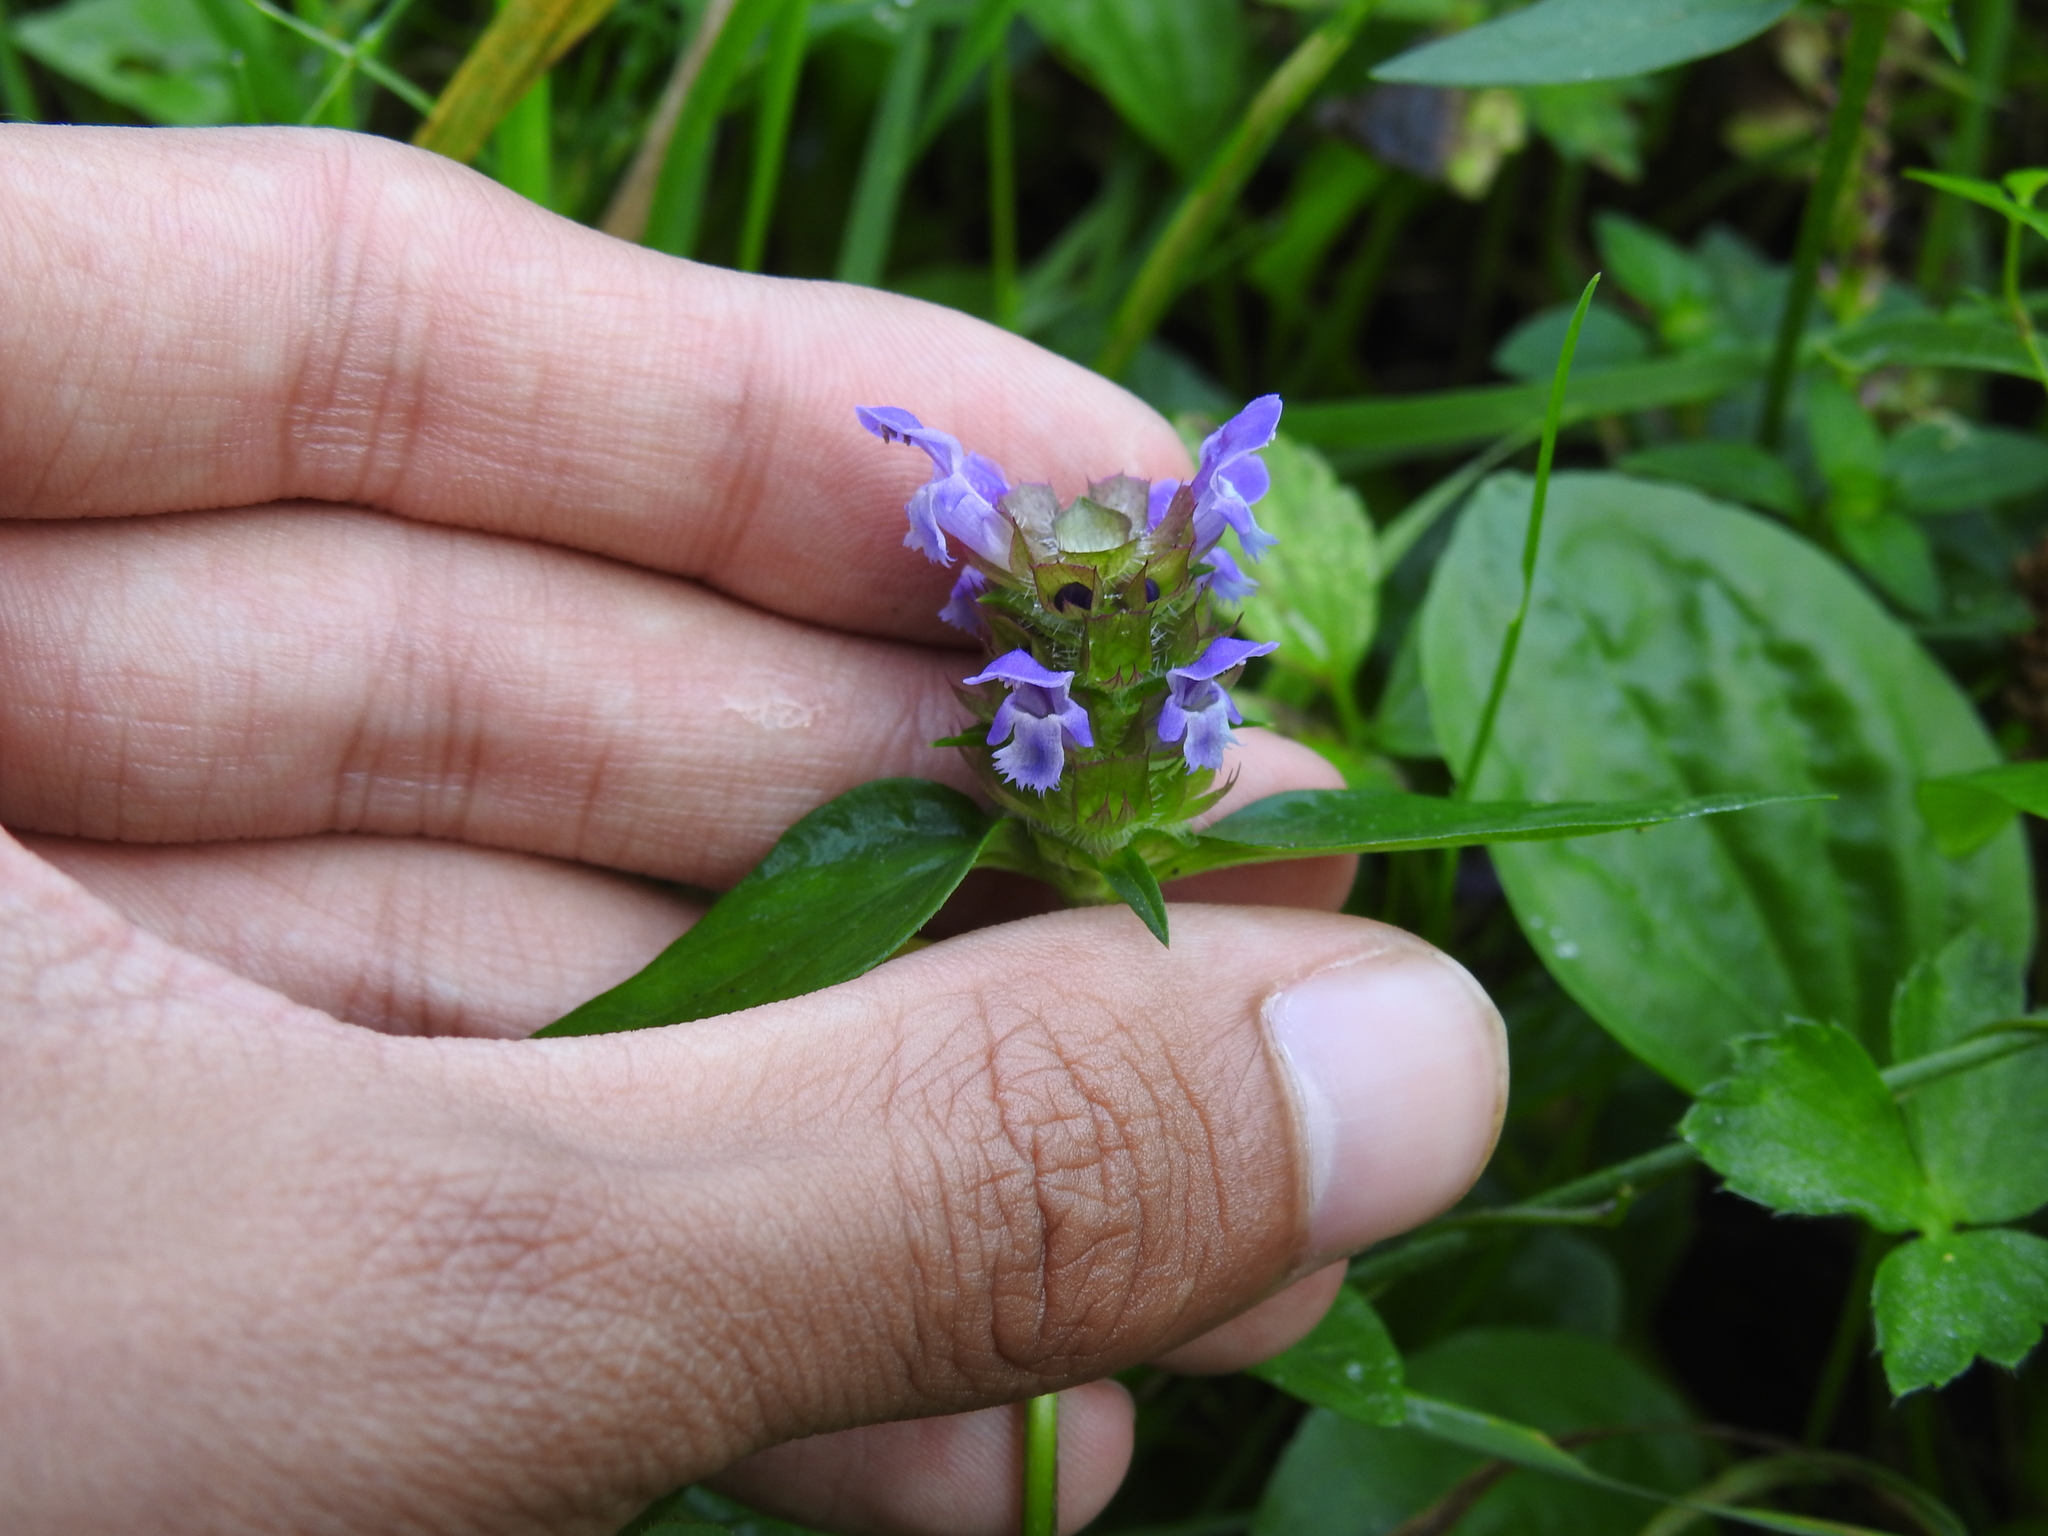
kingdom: Plantae
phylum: Tracheophyta
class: Magnoliopsida
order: Lamiales
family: Lamiaceae
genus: Prunella
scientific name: Prunella vulgaris
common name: Heal-all
